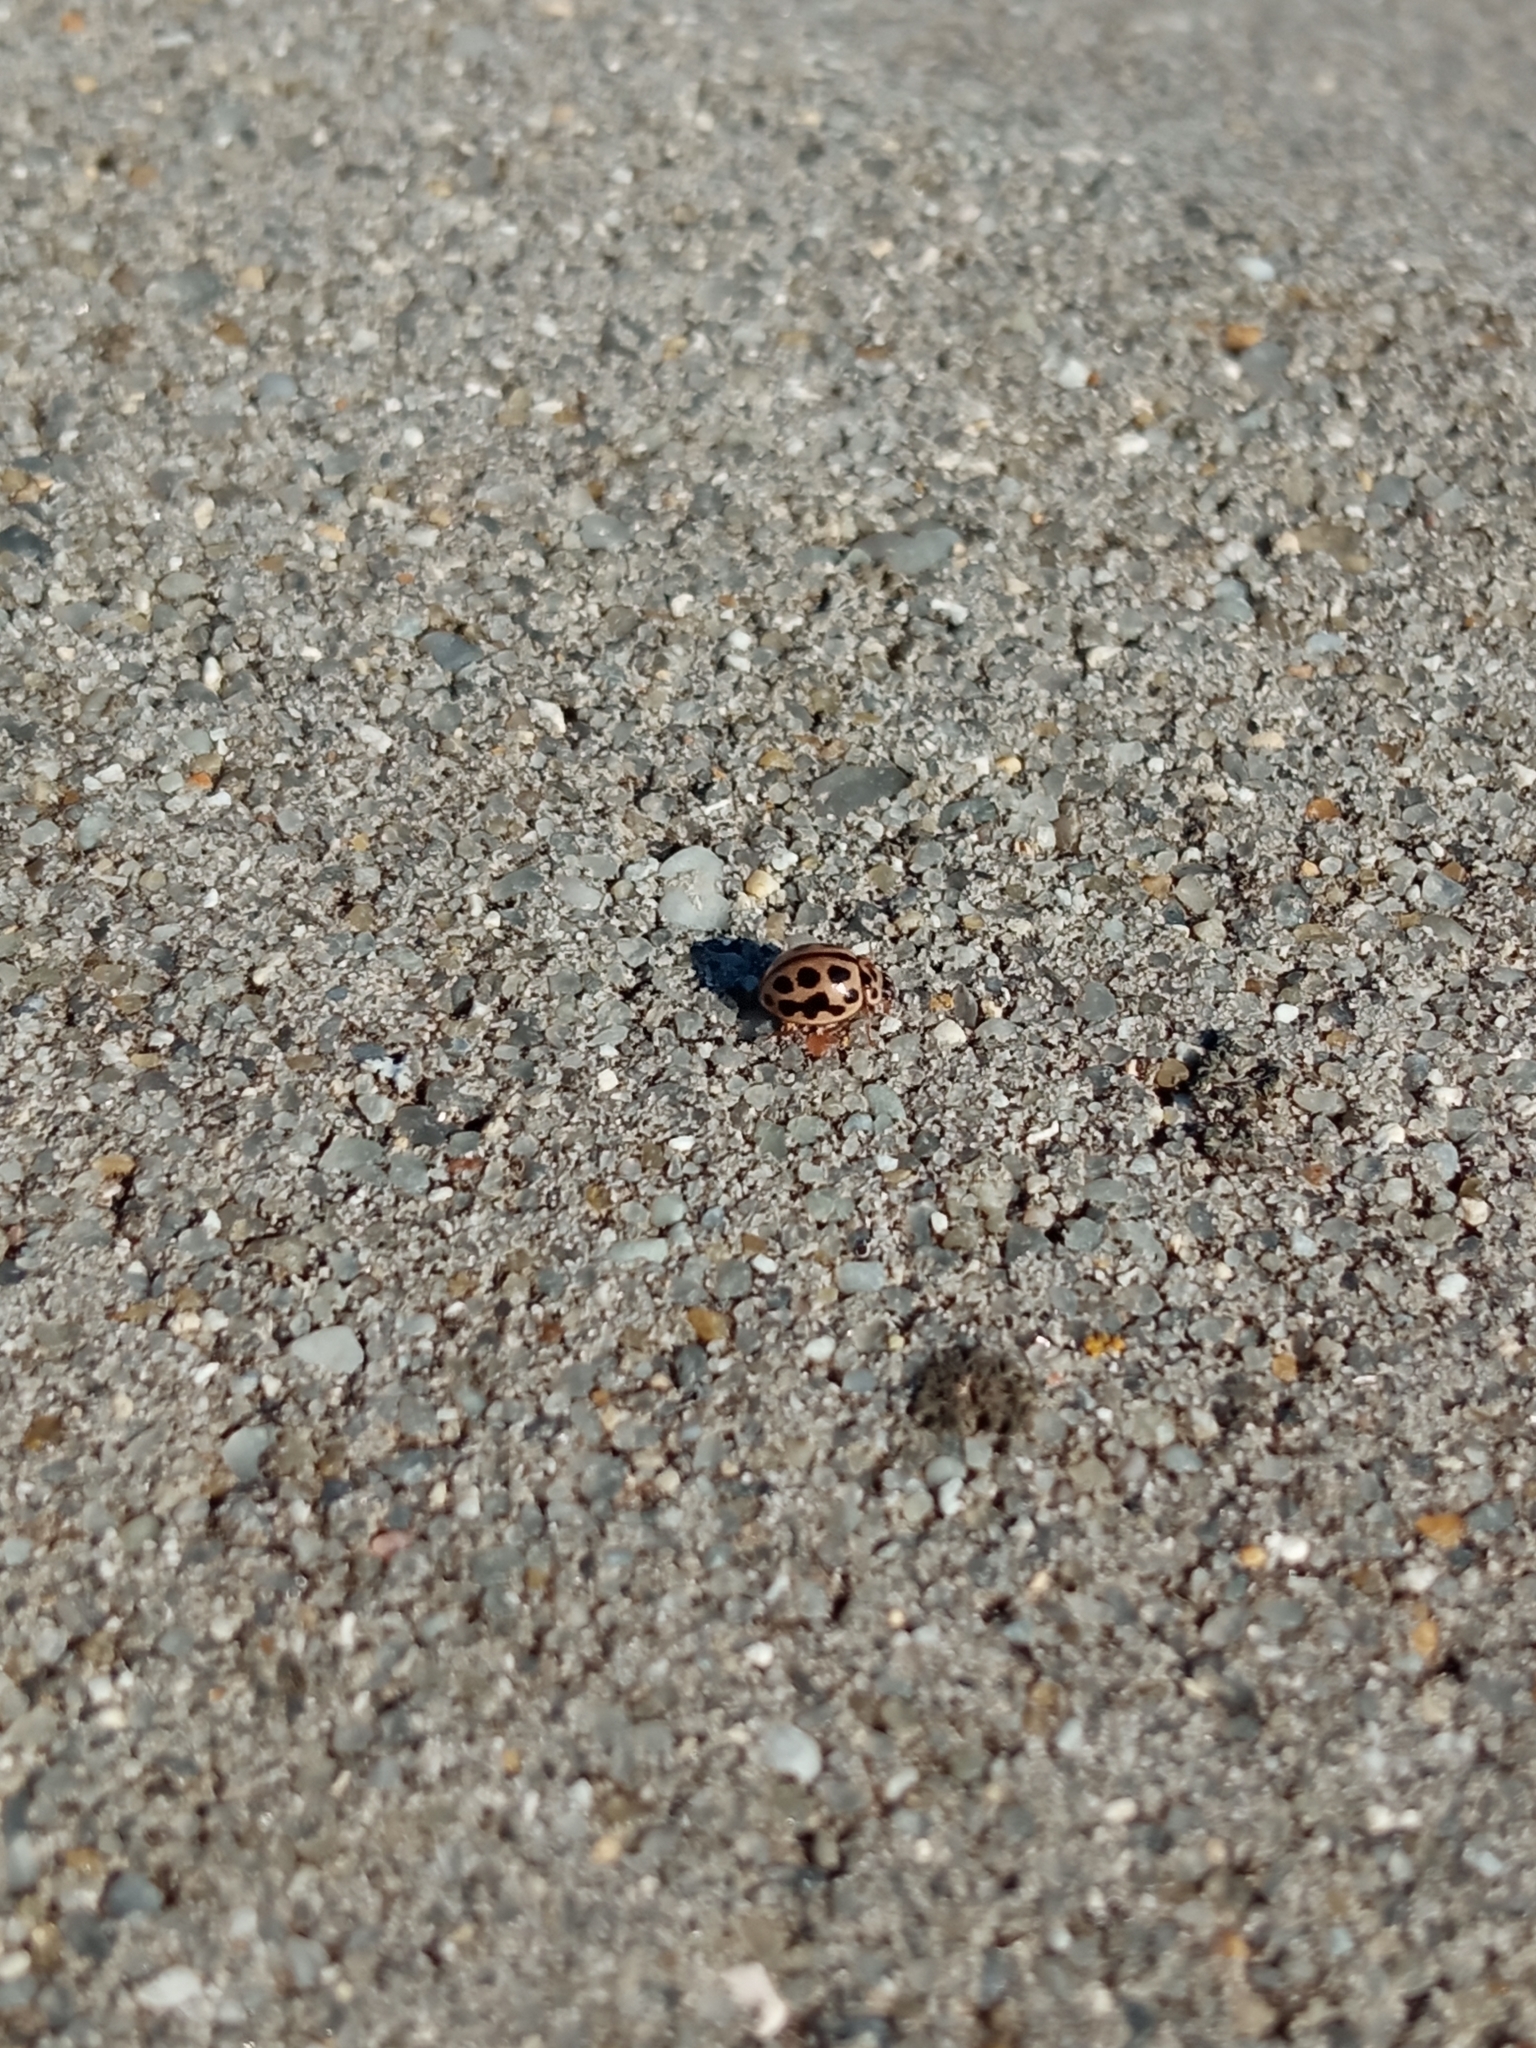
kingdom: Animalia
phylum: Arthropoda
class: Insecta
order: Coleoptera
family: Coccinellidae
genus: Tytthaspis
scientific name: Tytthaspis sedecimpunctata
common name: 16-spot ladybird
